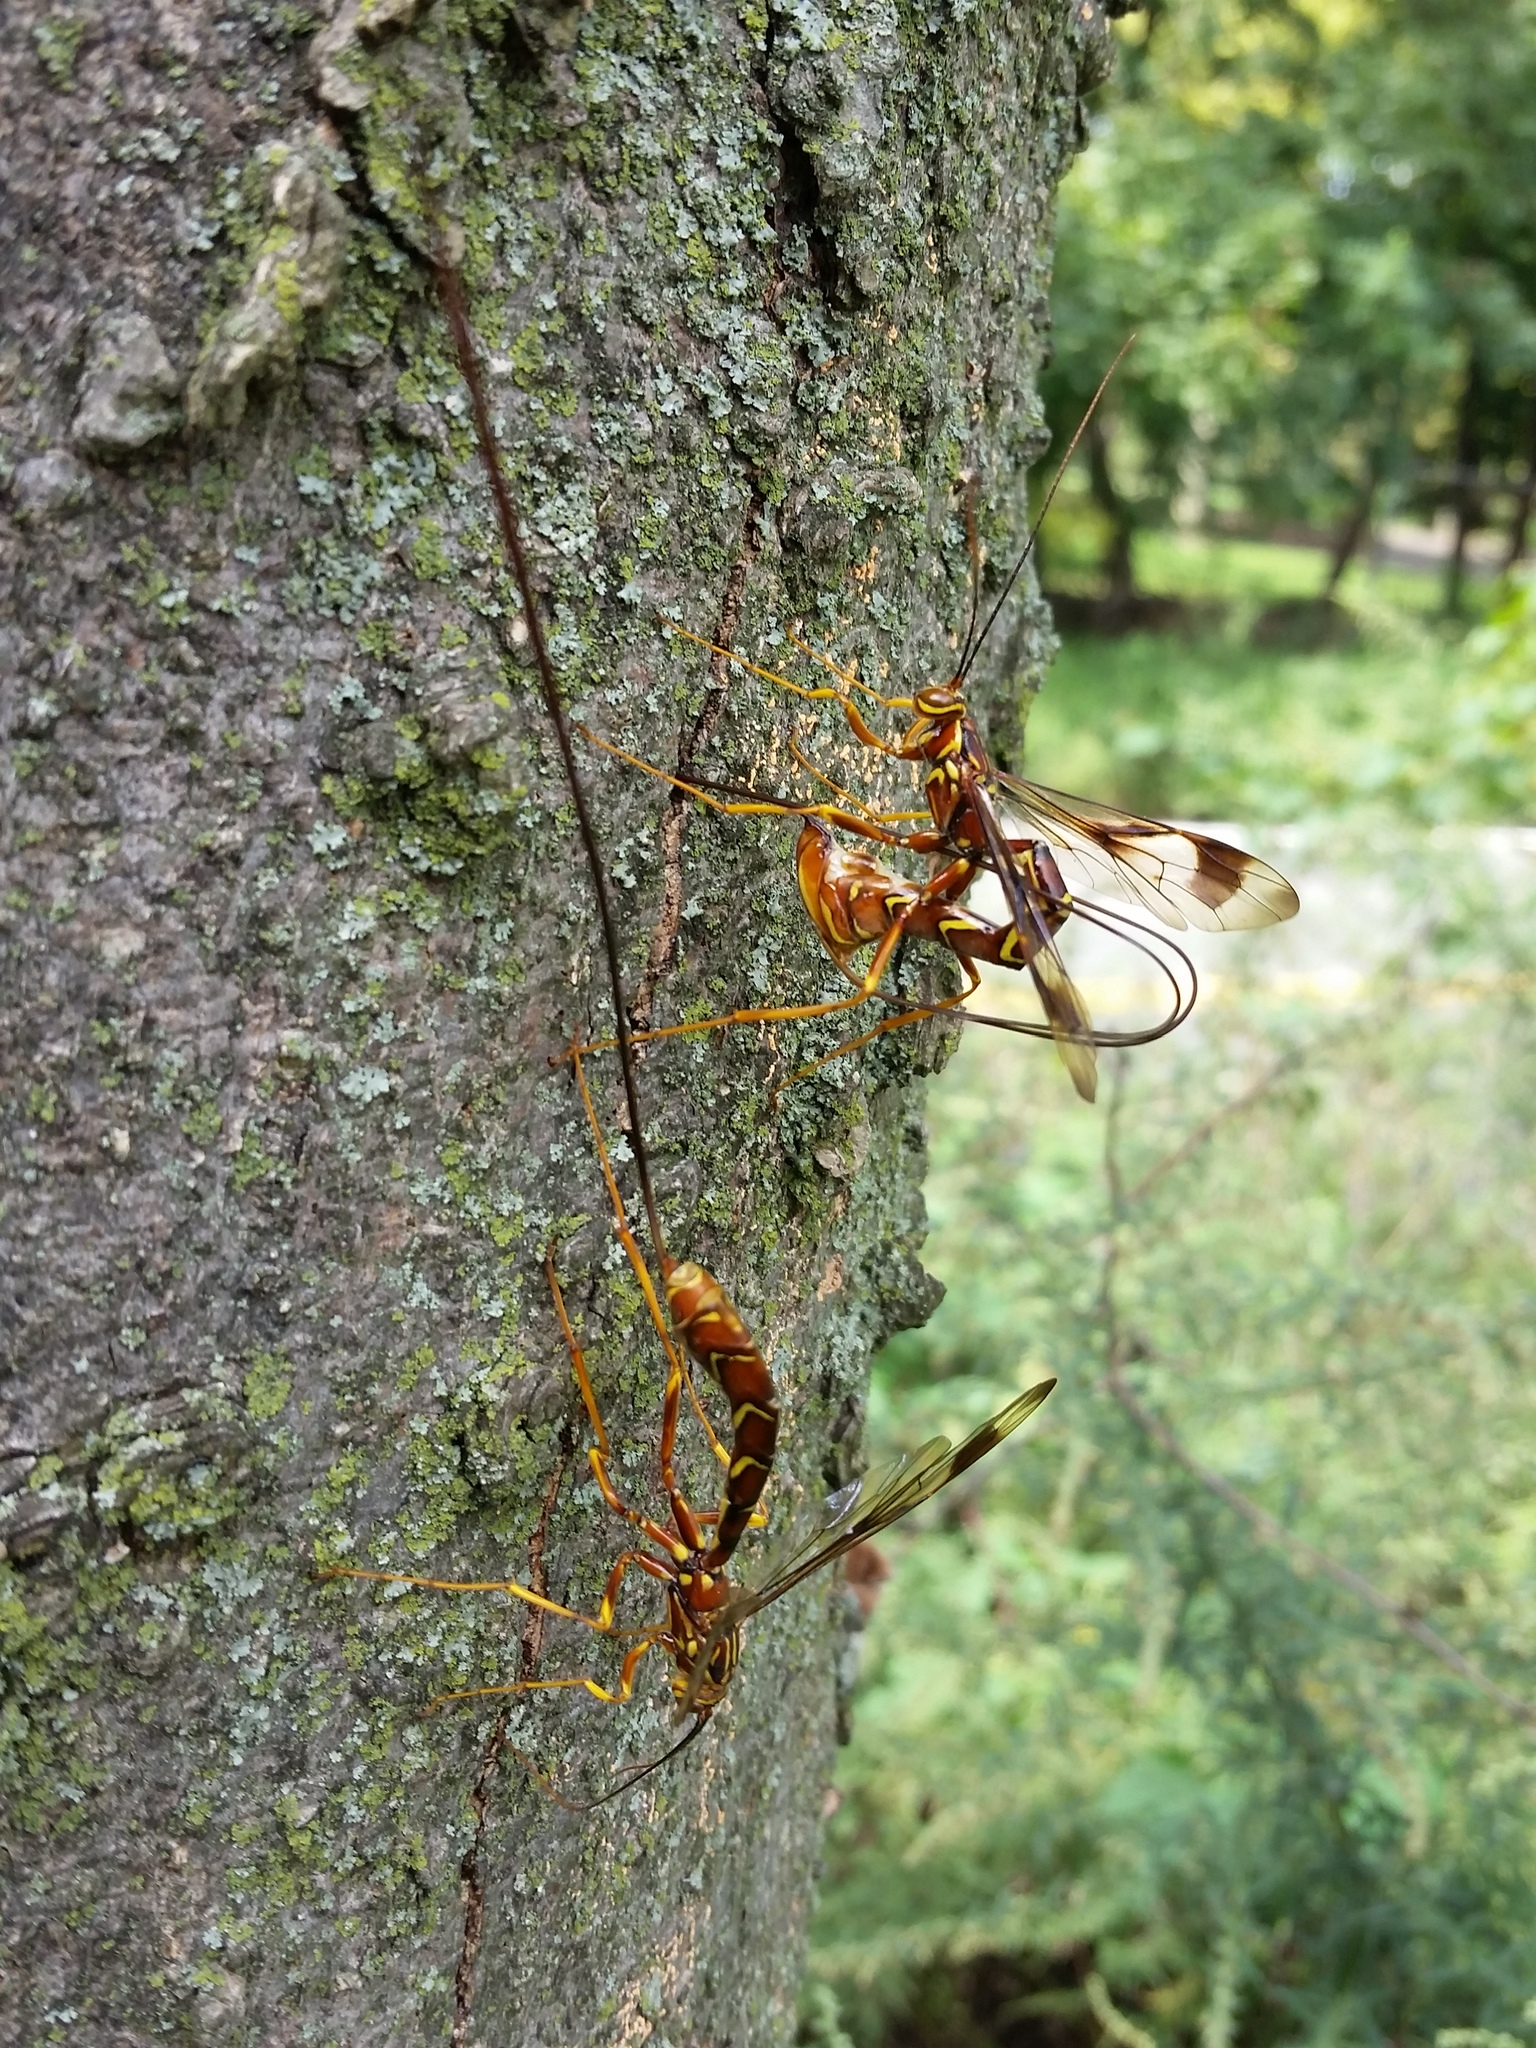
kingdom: Animalia
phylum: Arthropoda
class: Insecta
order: Hymenoptera
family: Ichneumonidae
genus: Megarhyssa
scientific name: Megarhyssa macrura
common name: Long-tailed giant ichneumonid wasp
